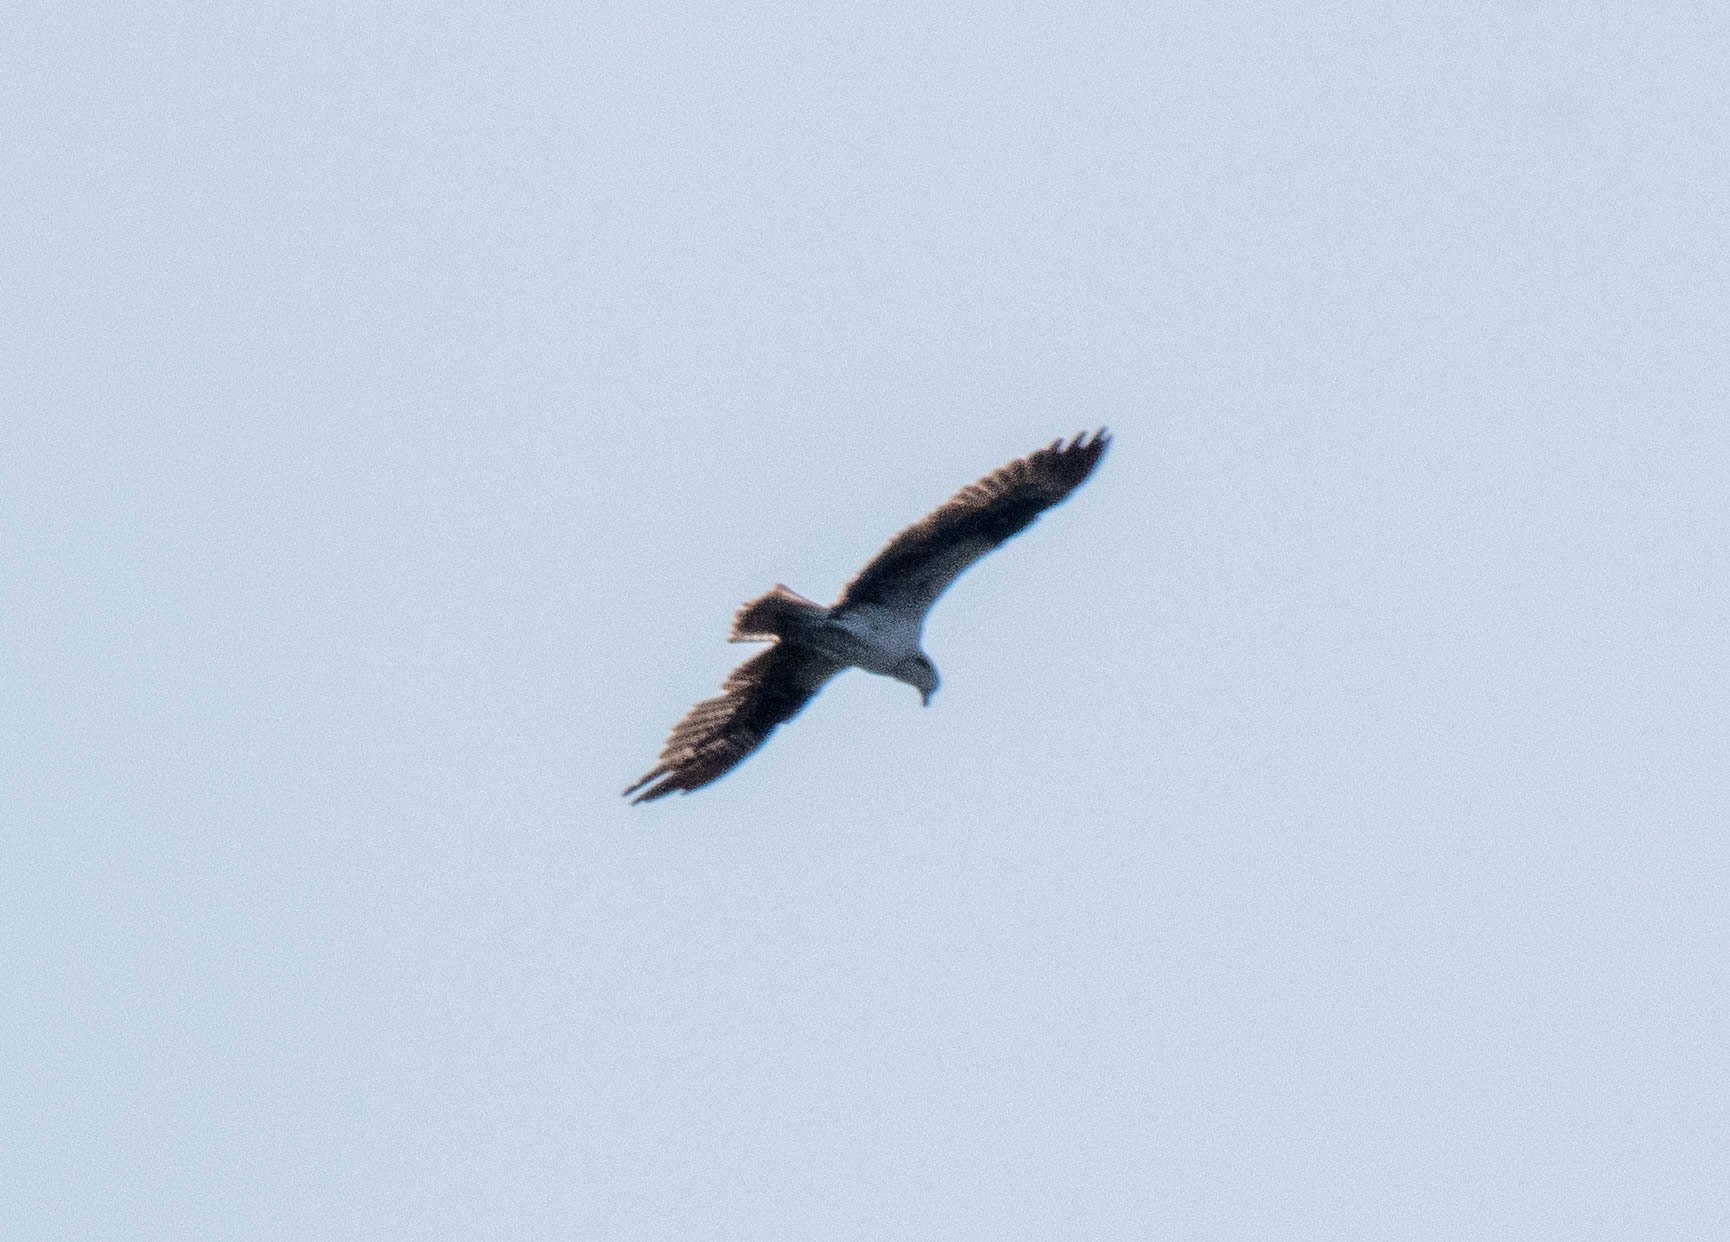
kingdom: Animalia
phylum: Chordata
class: Aves
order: Accipitriformes
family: Pandionidae
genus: Pandion
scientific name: Pandion haliaetus
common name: Osprey
